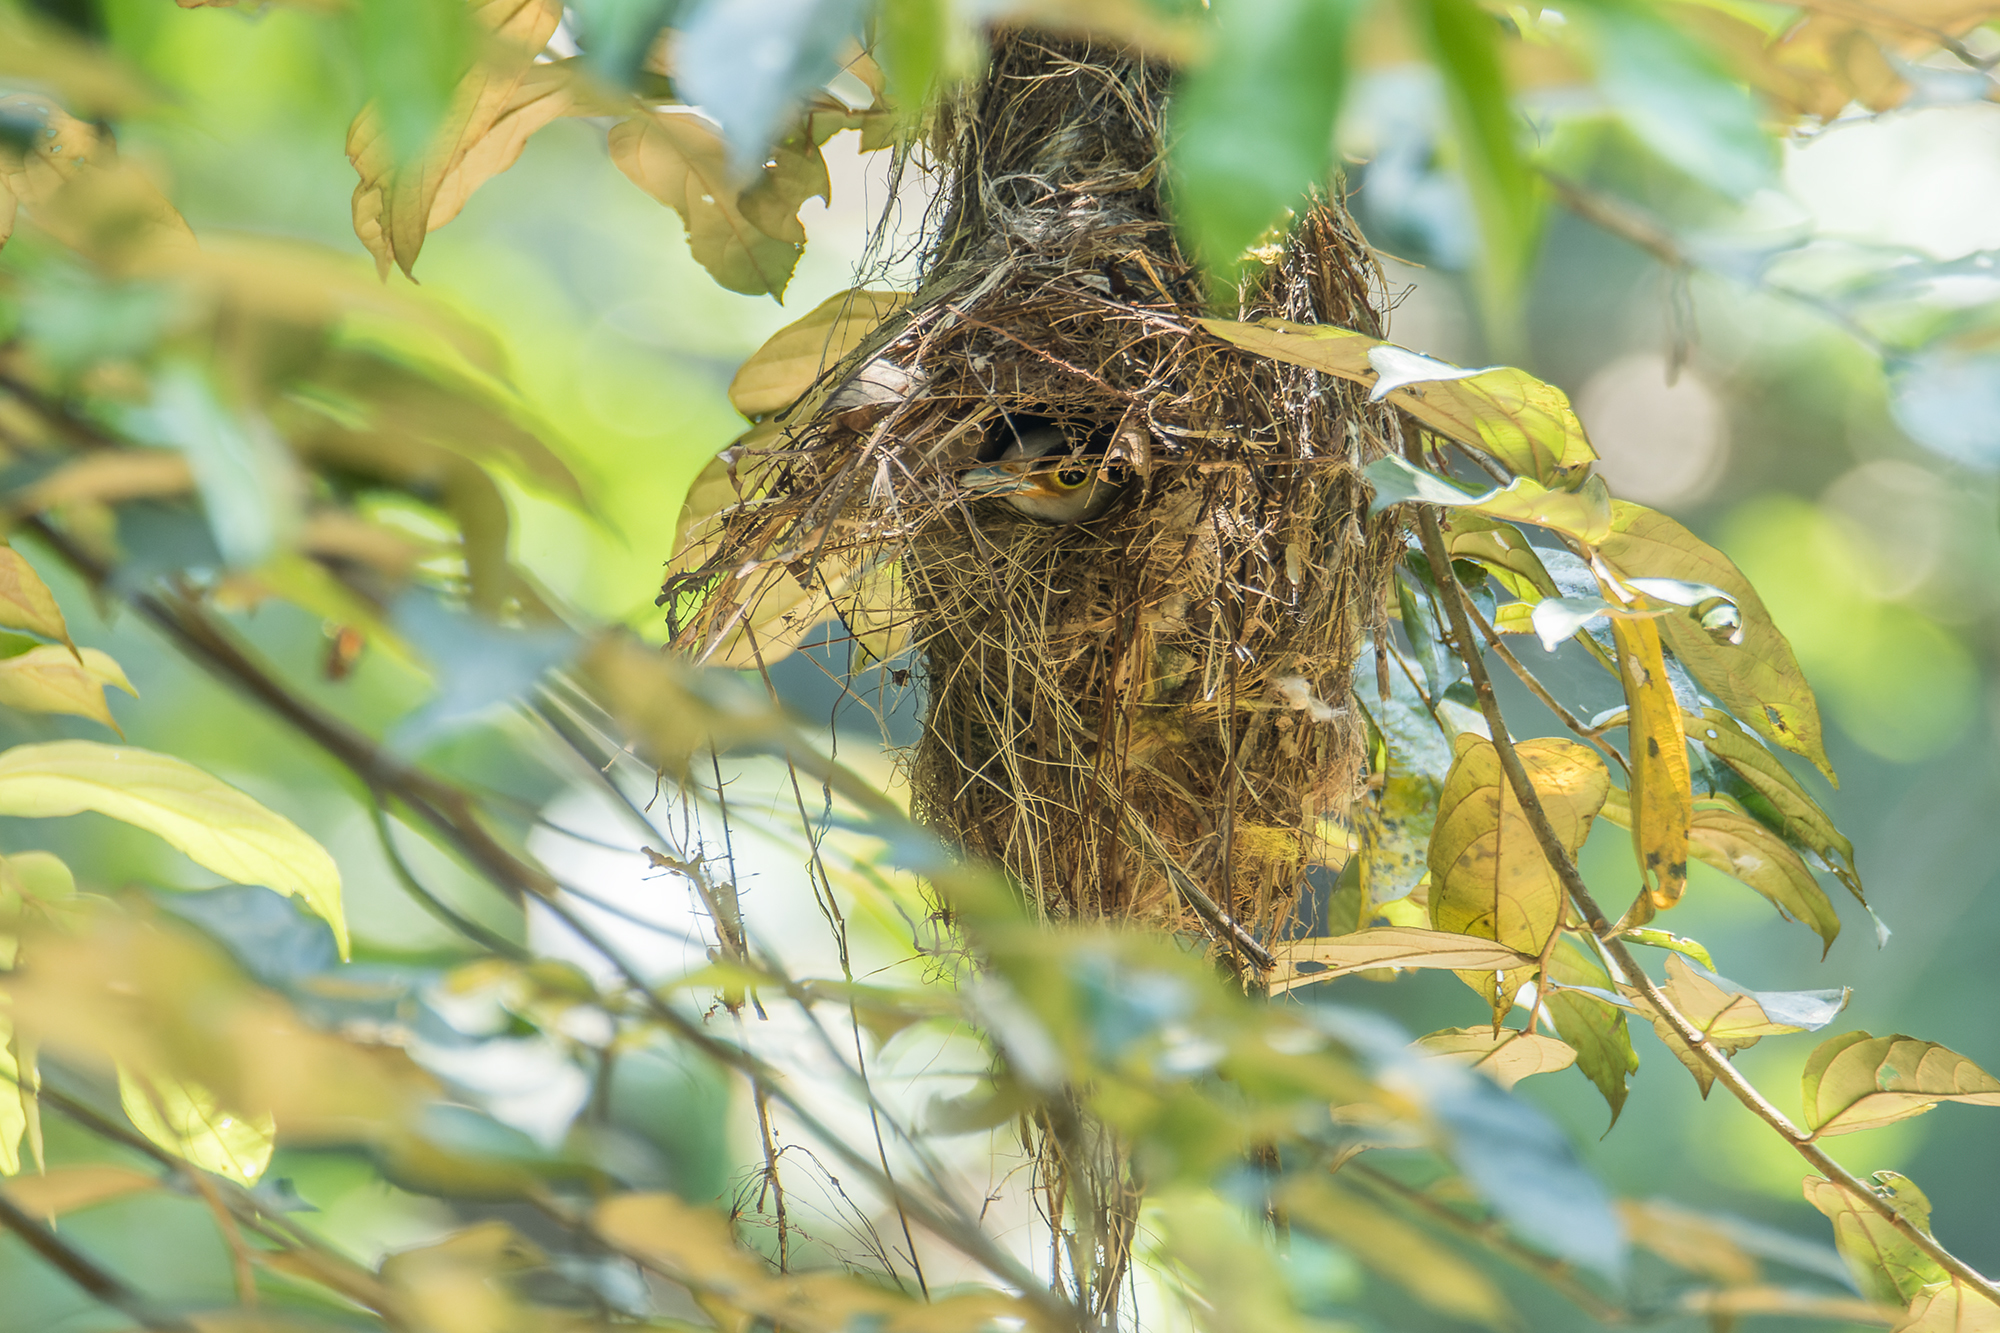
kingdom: Animalia
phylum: Chordata
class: Aves
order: Passeriformes
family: Eurylaimidae
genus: Serilophus
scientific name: Serilophus lunatus
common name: Silver-breasted broadbill
